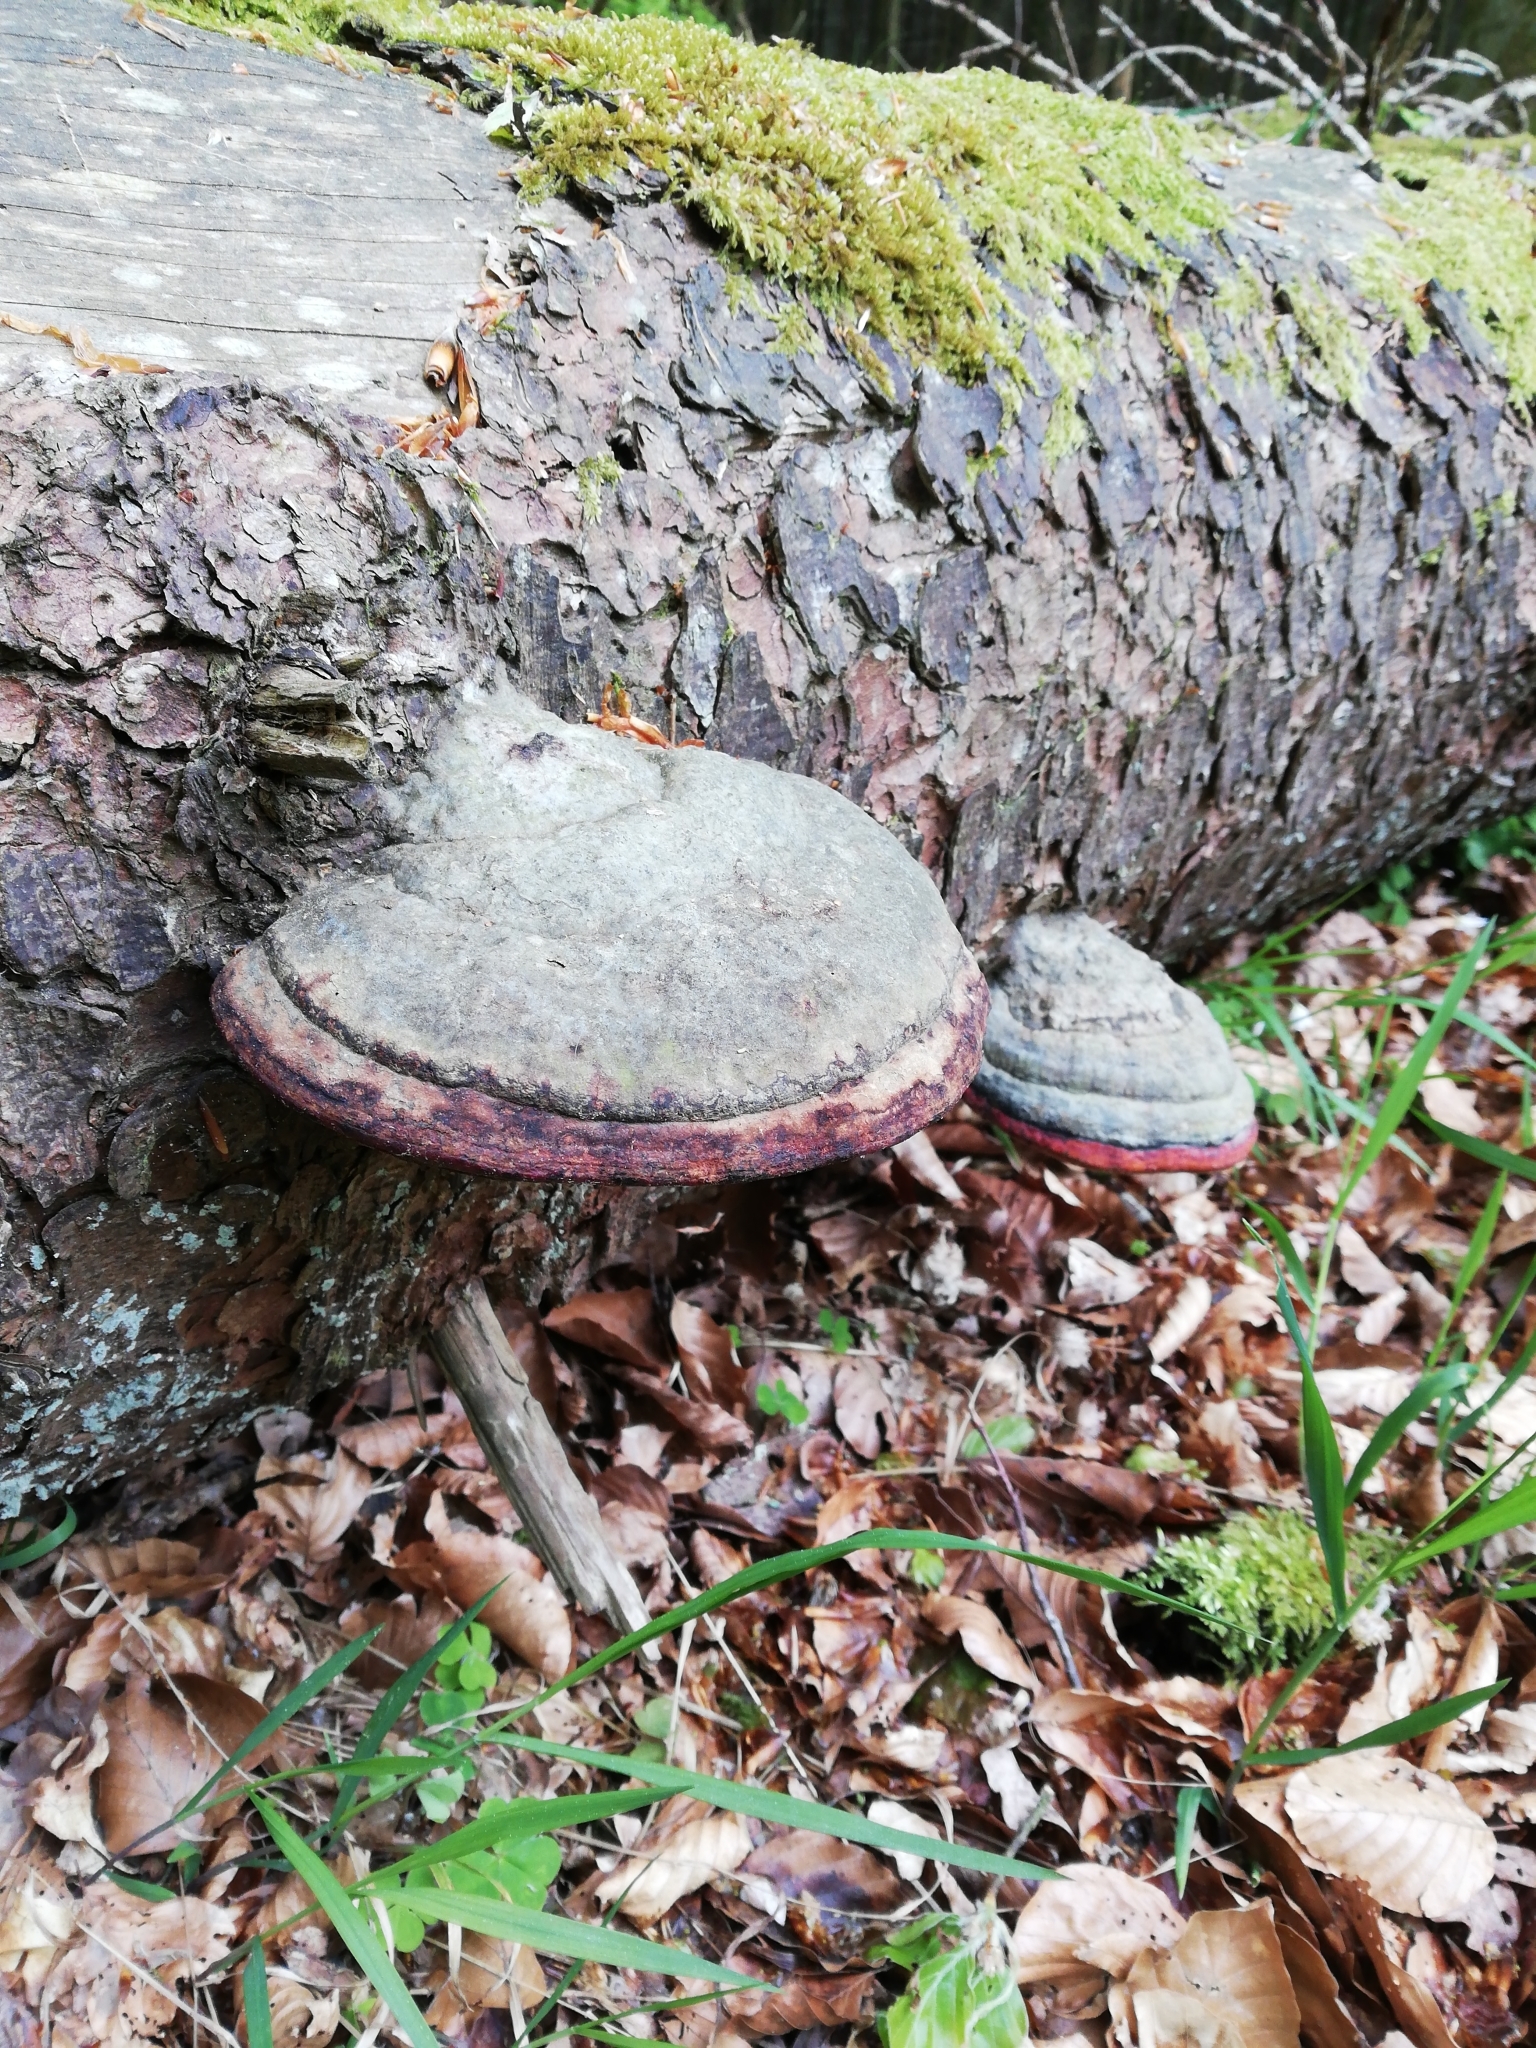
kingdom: Fungi
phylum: Basidiomycota
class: Agaricomycetes
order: Polyporales
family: Fomitopsidaceae
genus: Fomitopsis
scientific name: Fomitopsis pinicola
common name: Red-belted bracket
